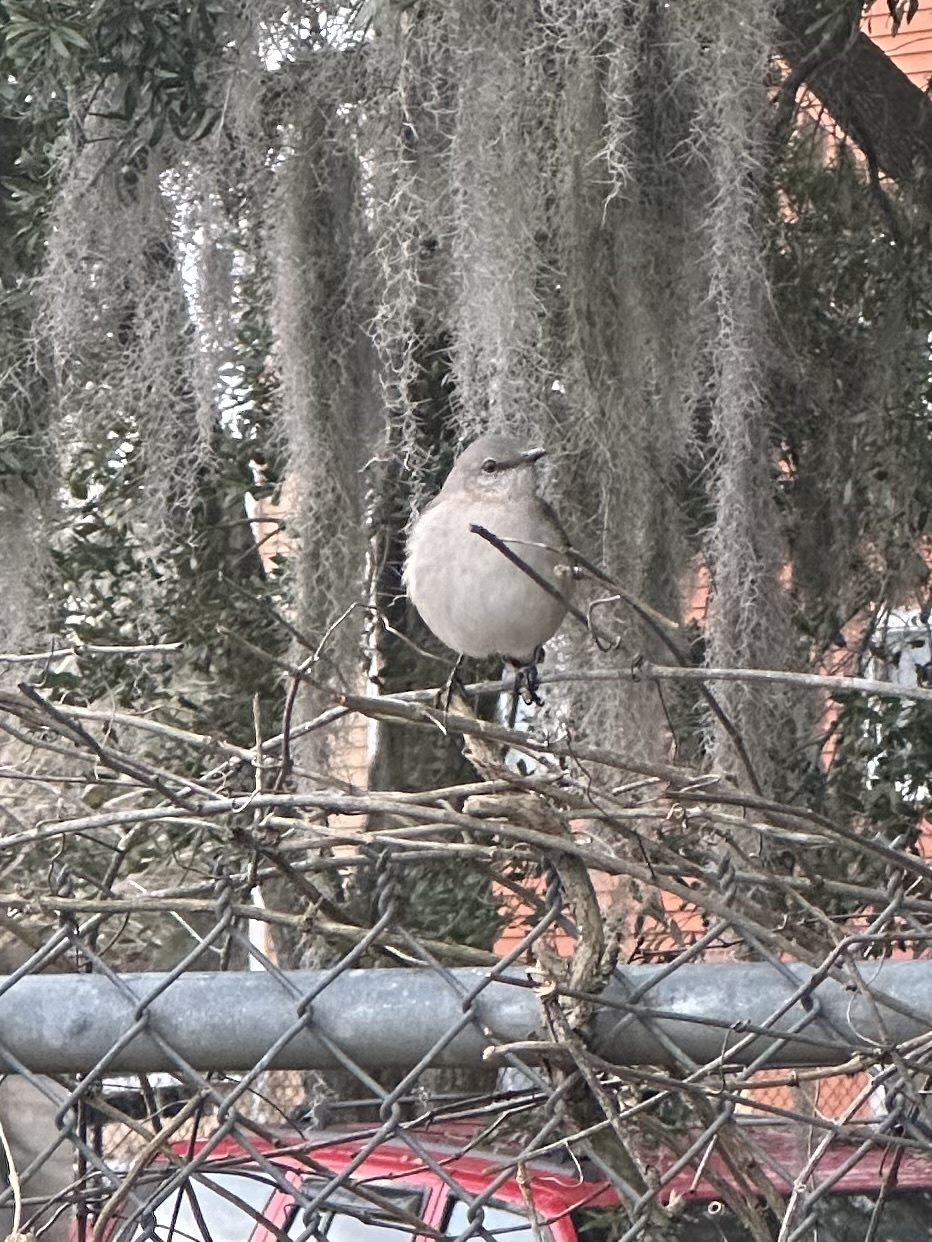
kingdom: Animalia
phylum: Chordata
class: Aves
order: Passeriformes
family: Mimidae
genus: Mimus
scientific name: Mimus polyglottos
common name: Northern mockingbird
